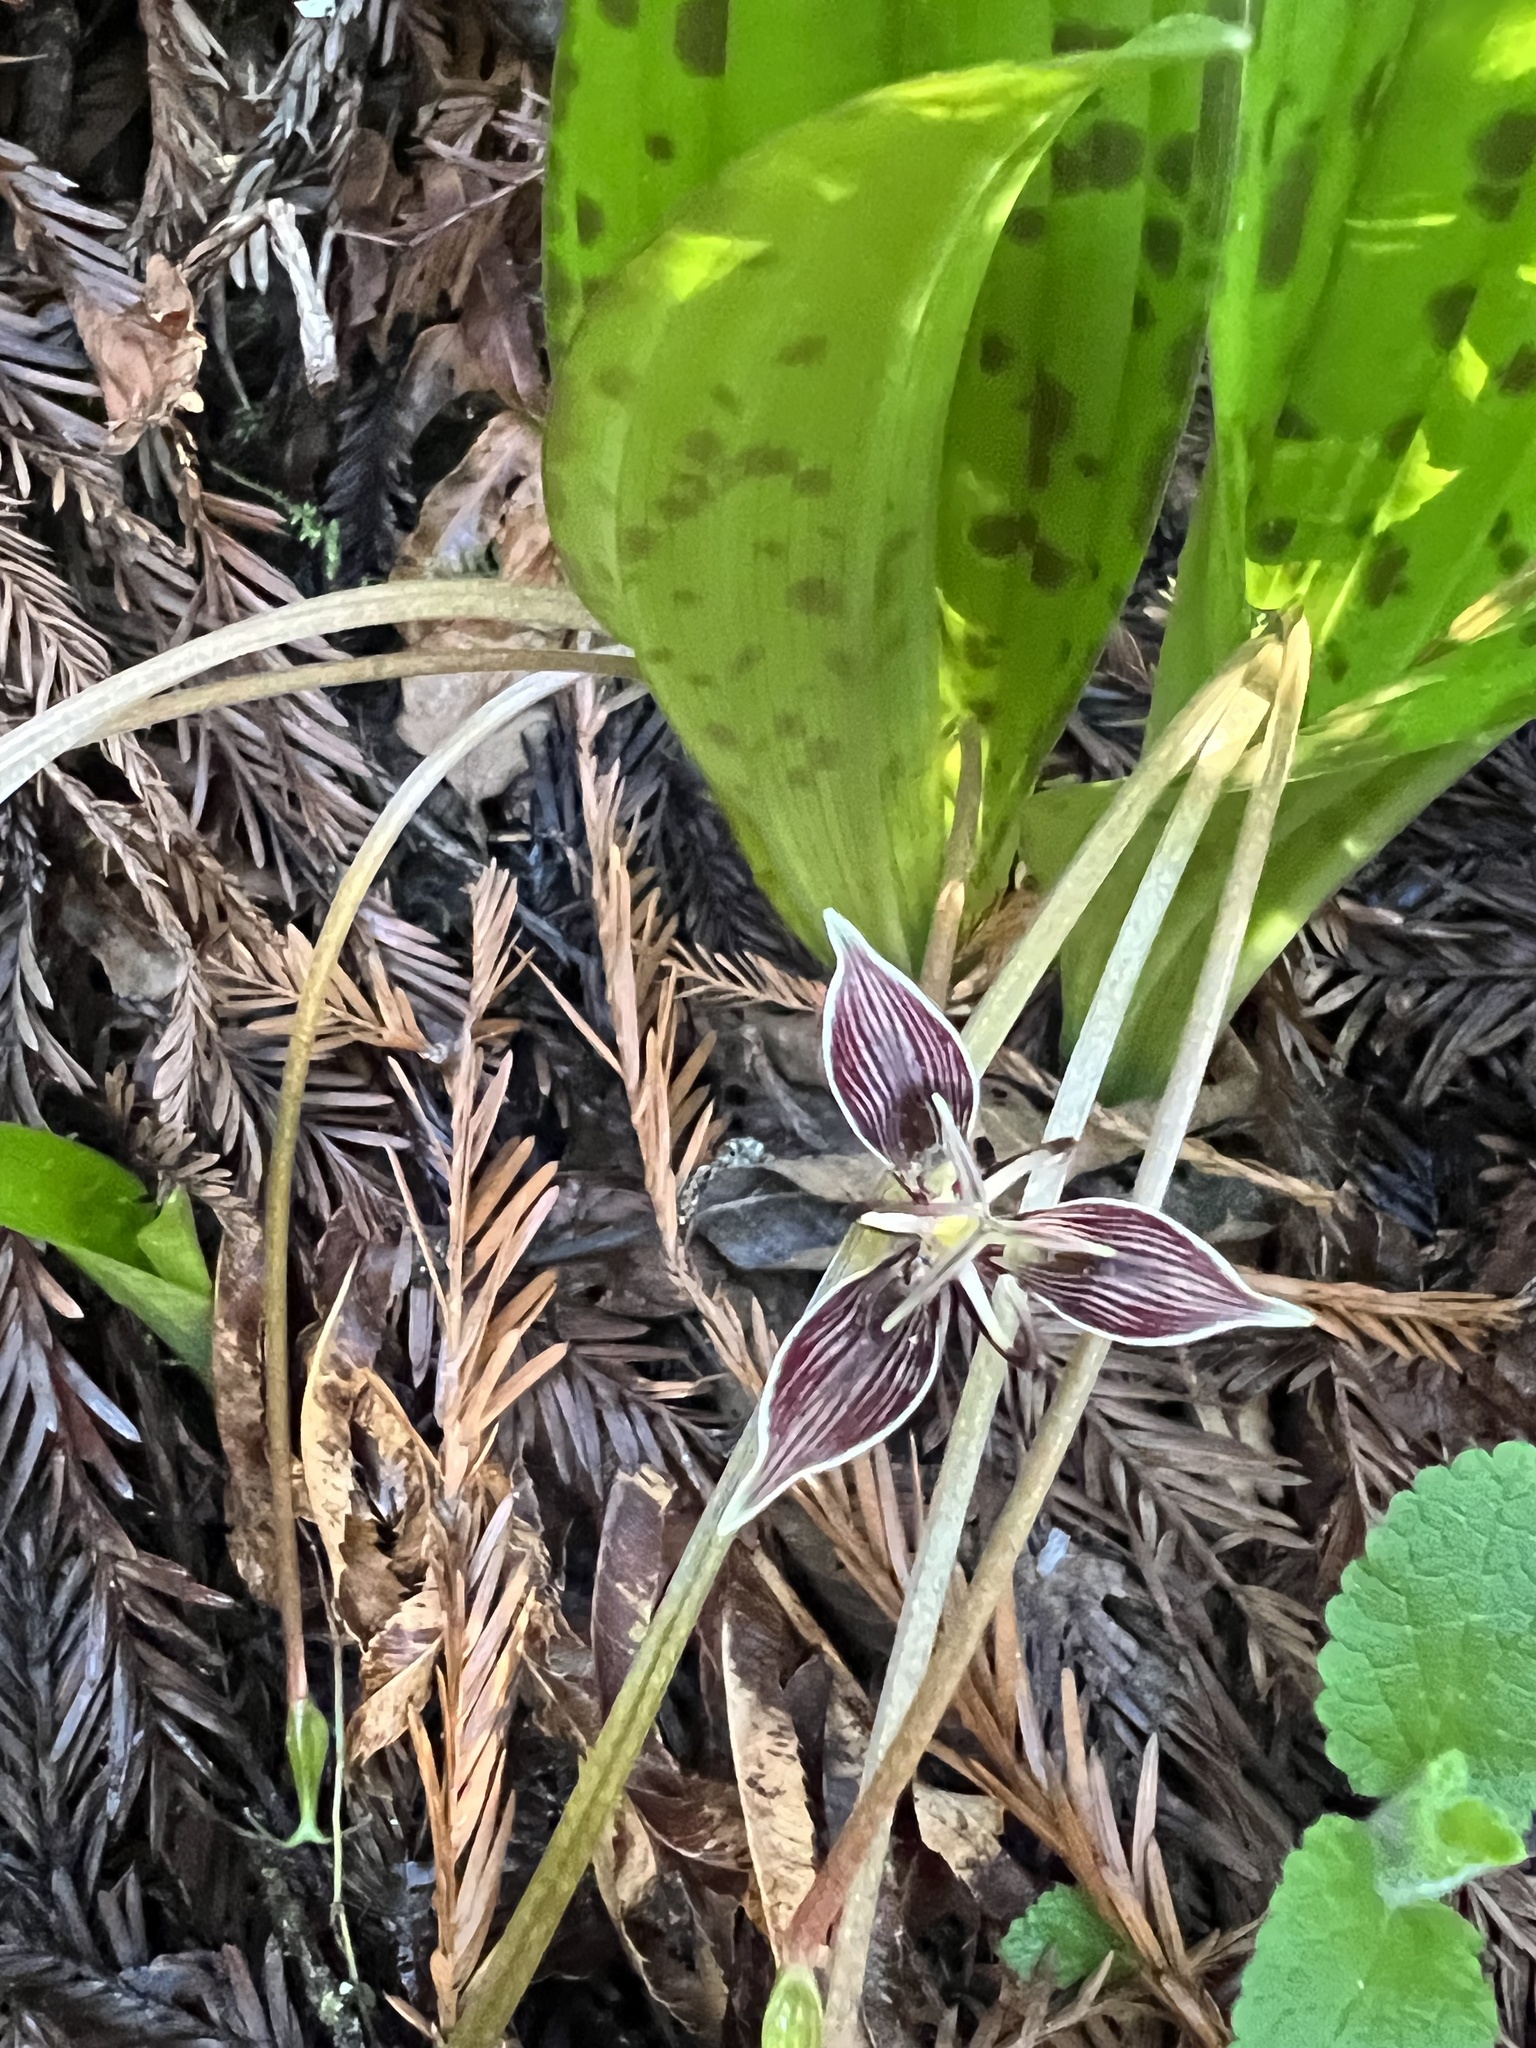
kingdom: Plantae
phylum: Tracheophyta
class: Liliopsida
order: Liliales
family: Liliaceae
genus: Scoliopus
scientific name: Scoliopus bigelovii
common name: Foetid adder's-tongue
